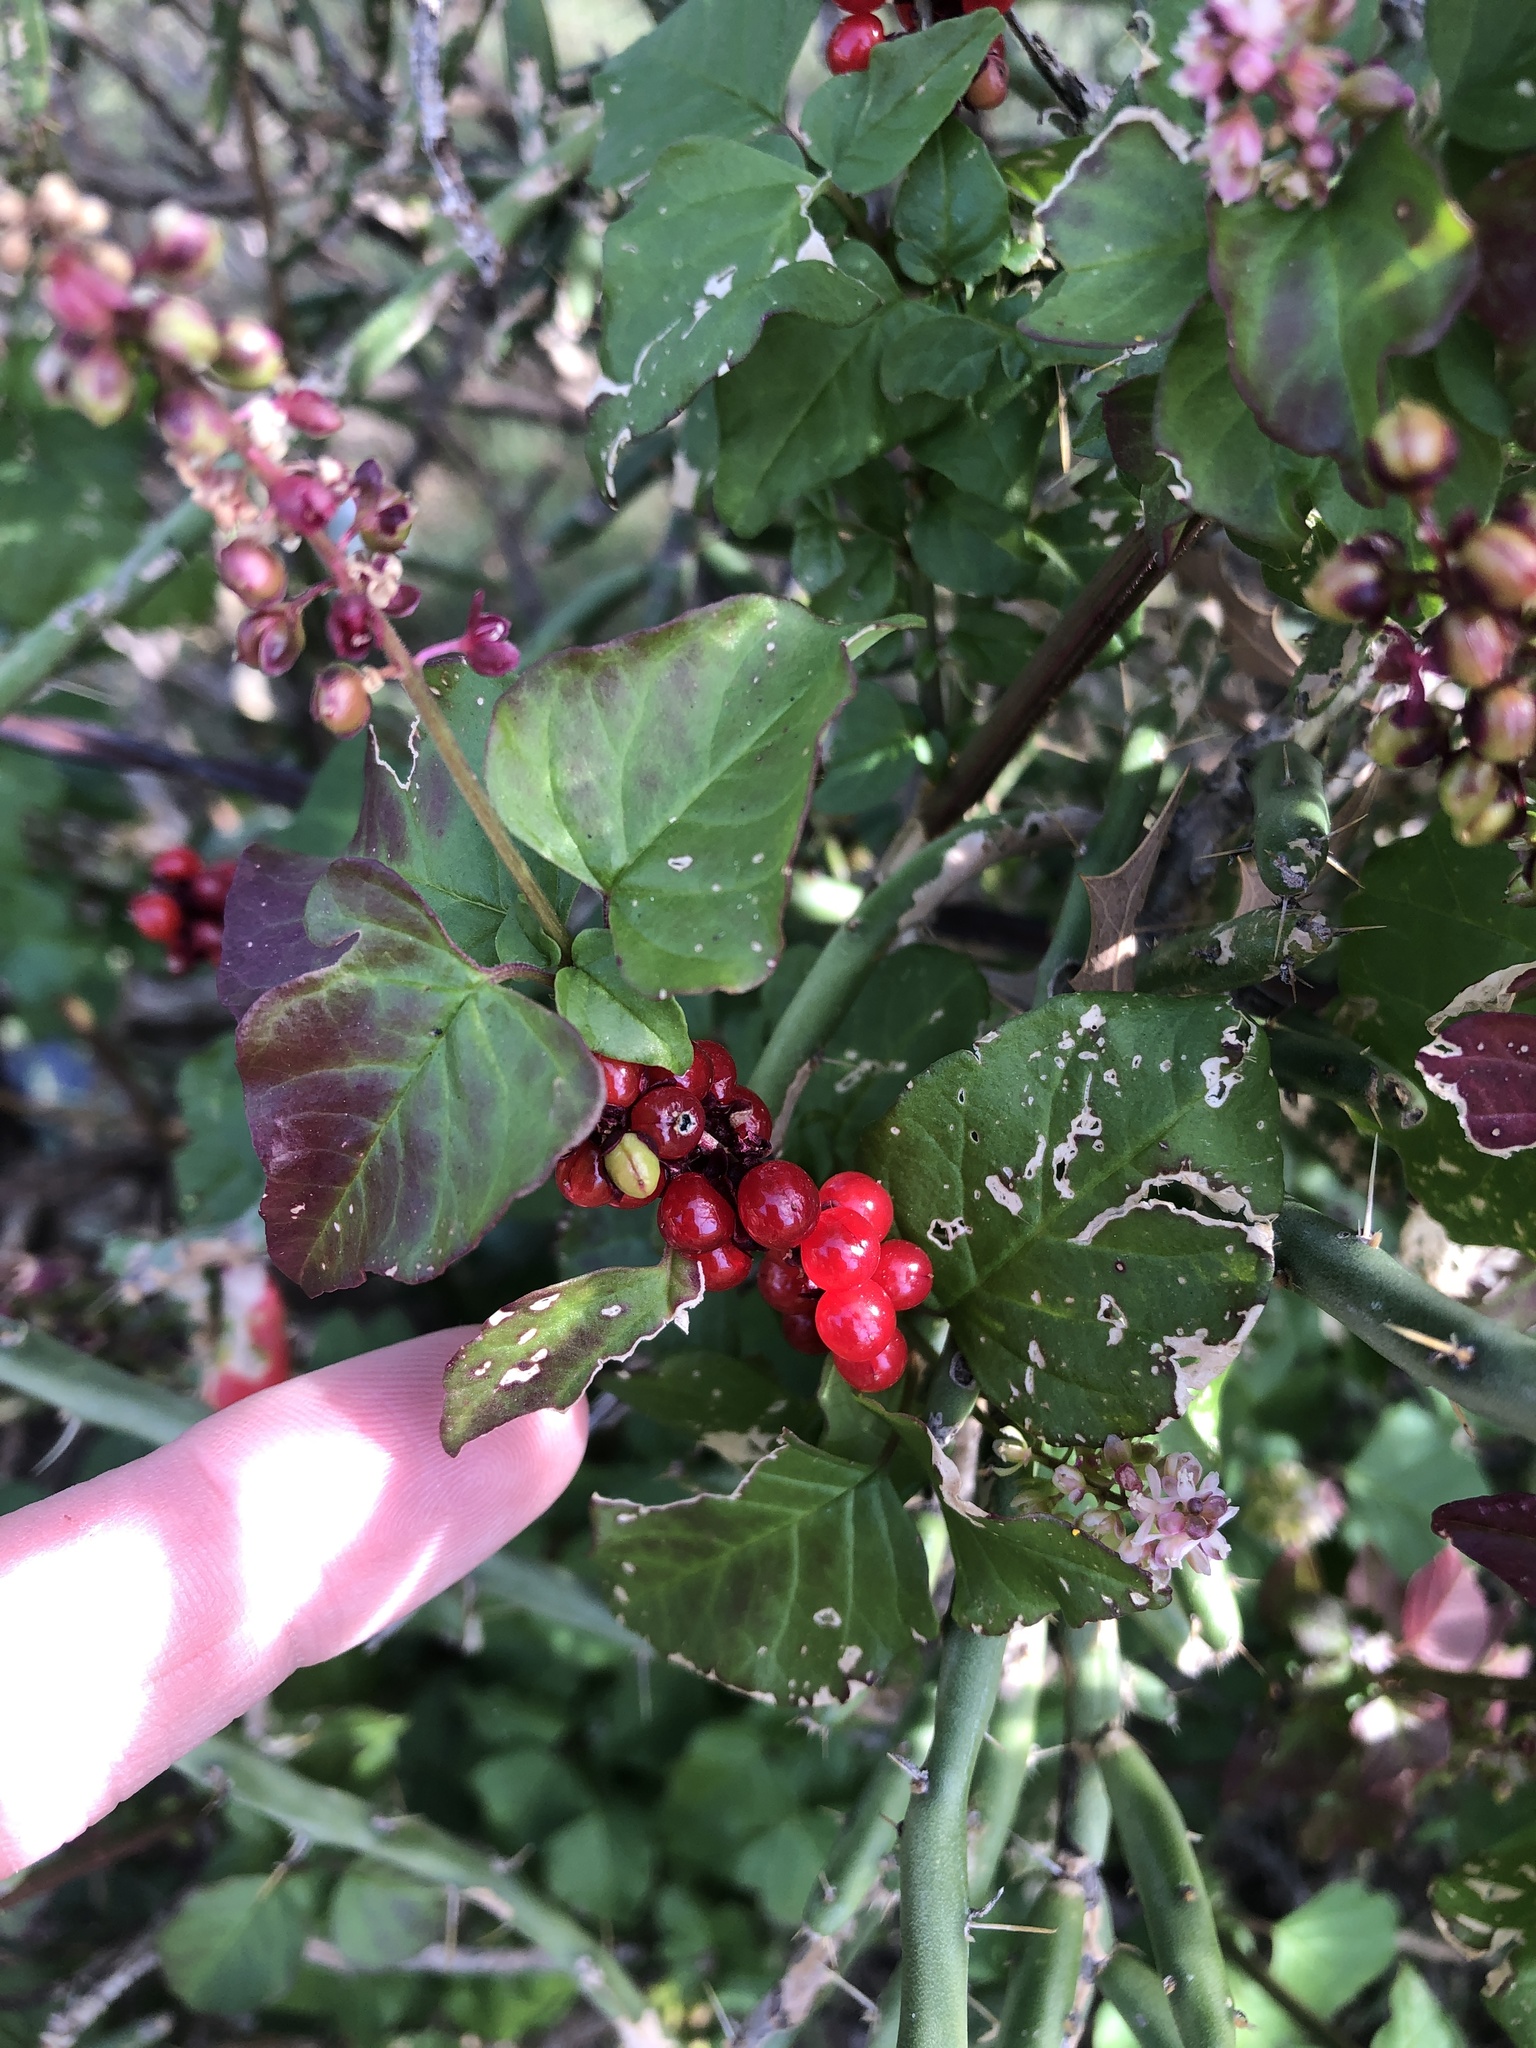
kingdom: Plantae
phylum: Tracheophyta
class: Magnoliopsida
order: Caryophyllales
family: Phytolaccaceae
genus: Rivina
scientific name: Rivina humilis
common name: Rougeplant
